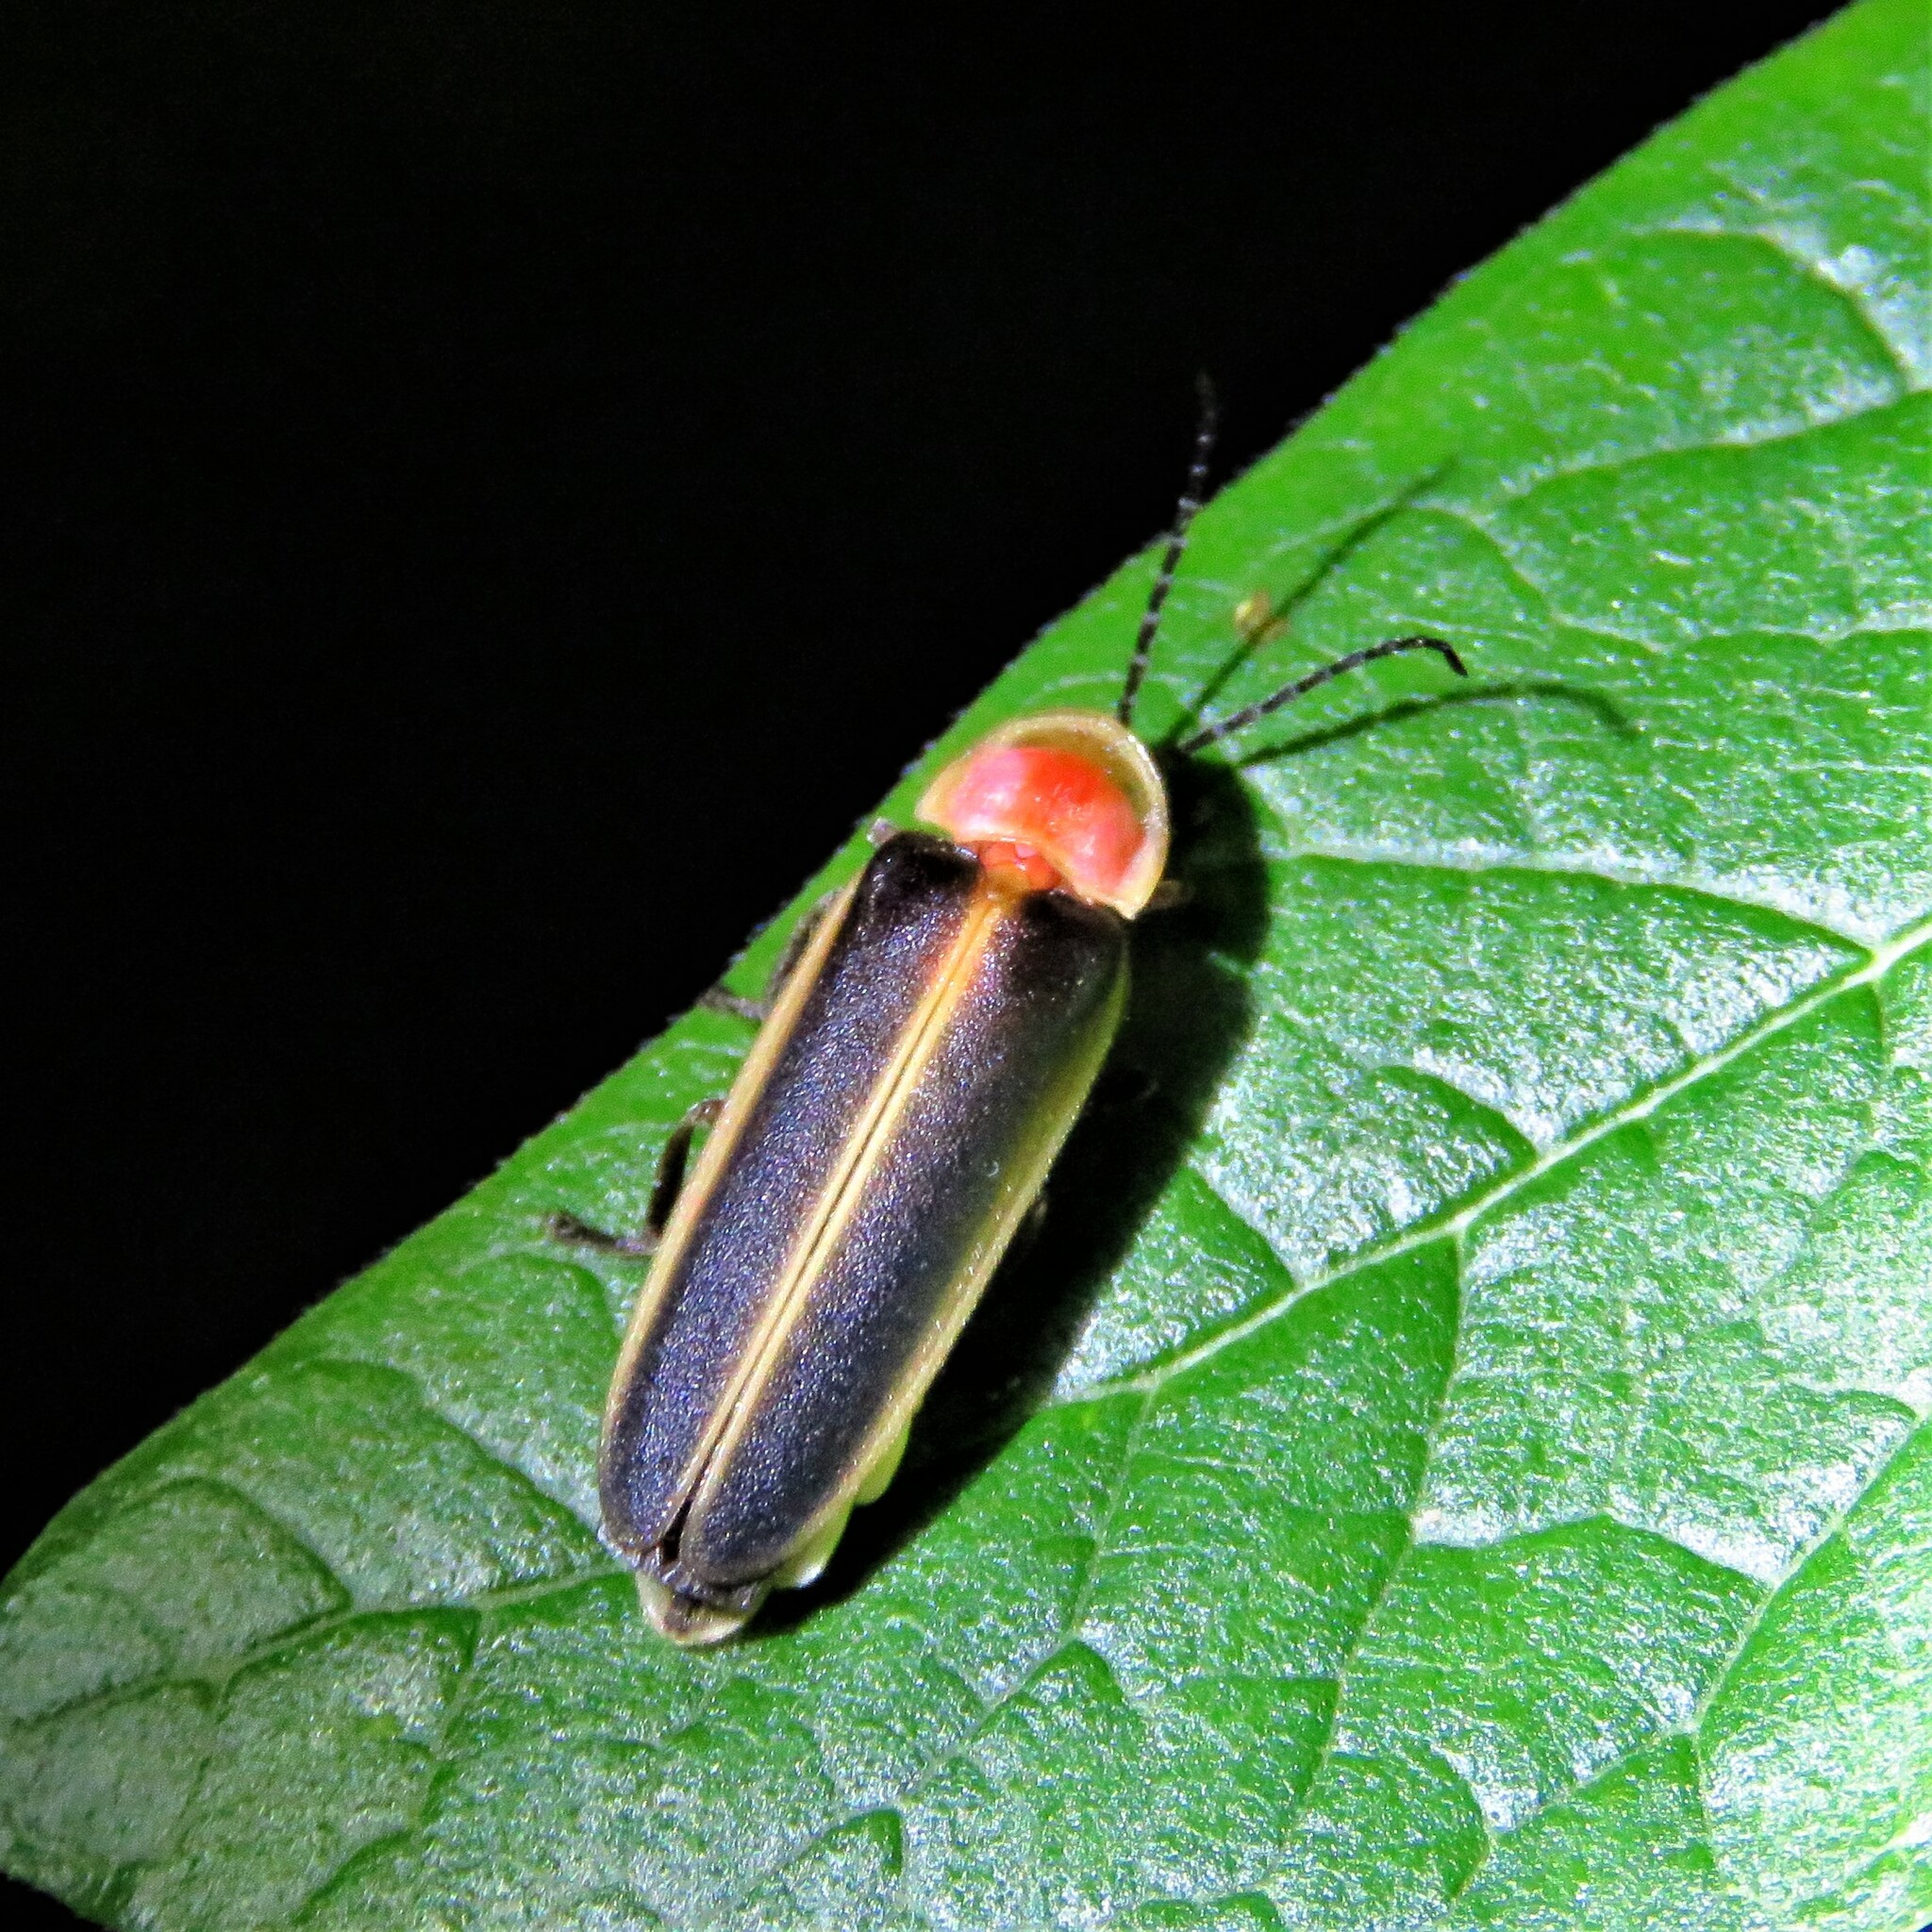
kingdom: Animalia
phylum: Arthropoda
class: Insecta
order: Coleoptera
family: Lampyridae
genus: Photinus
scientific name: Photinus pyralis
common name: Big dipper firefly
